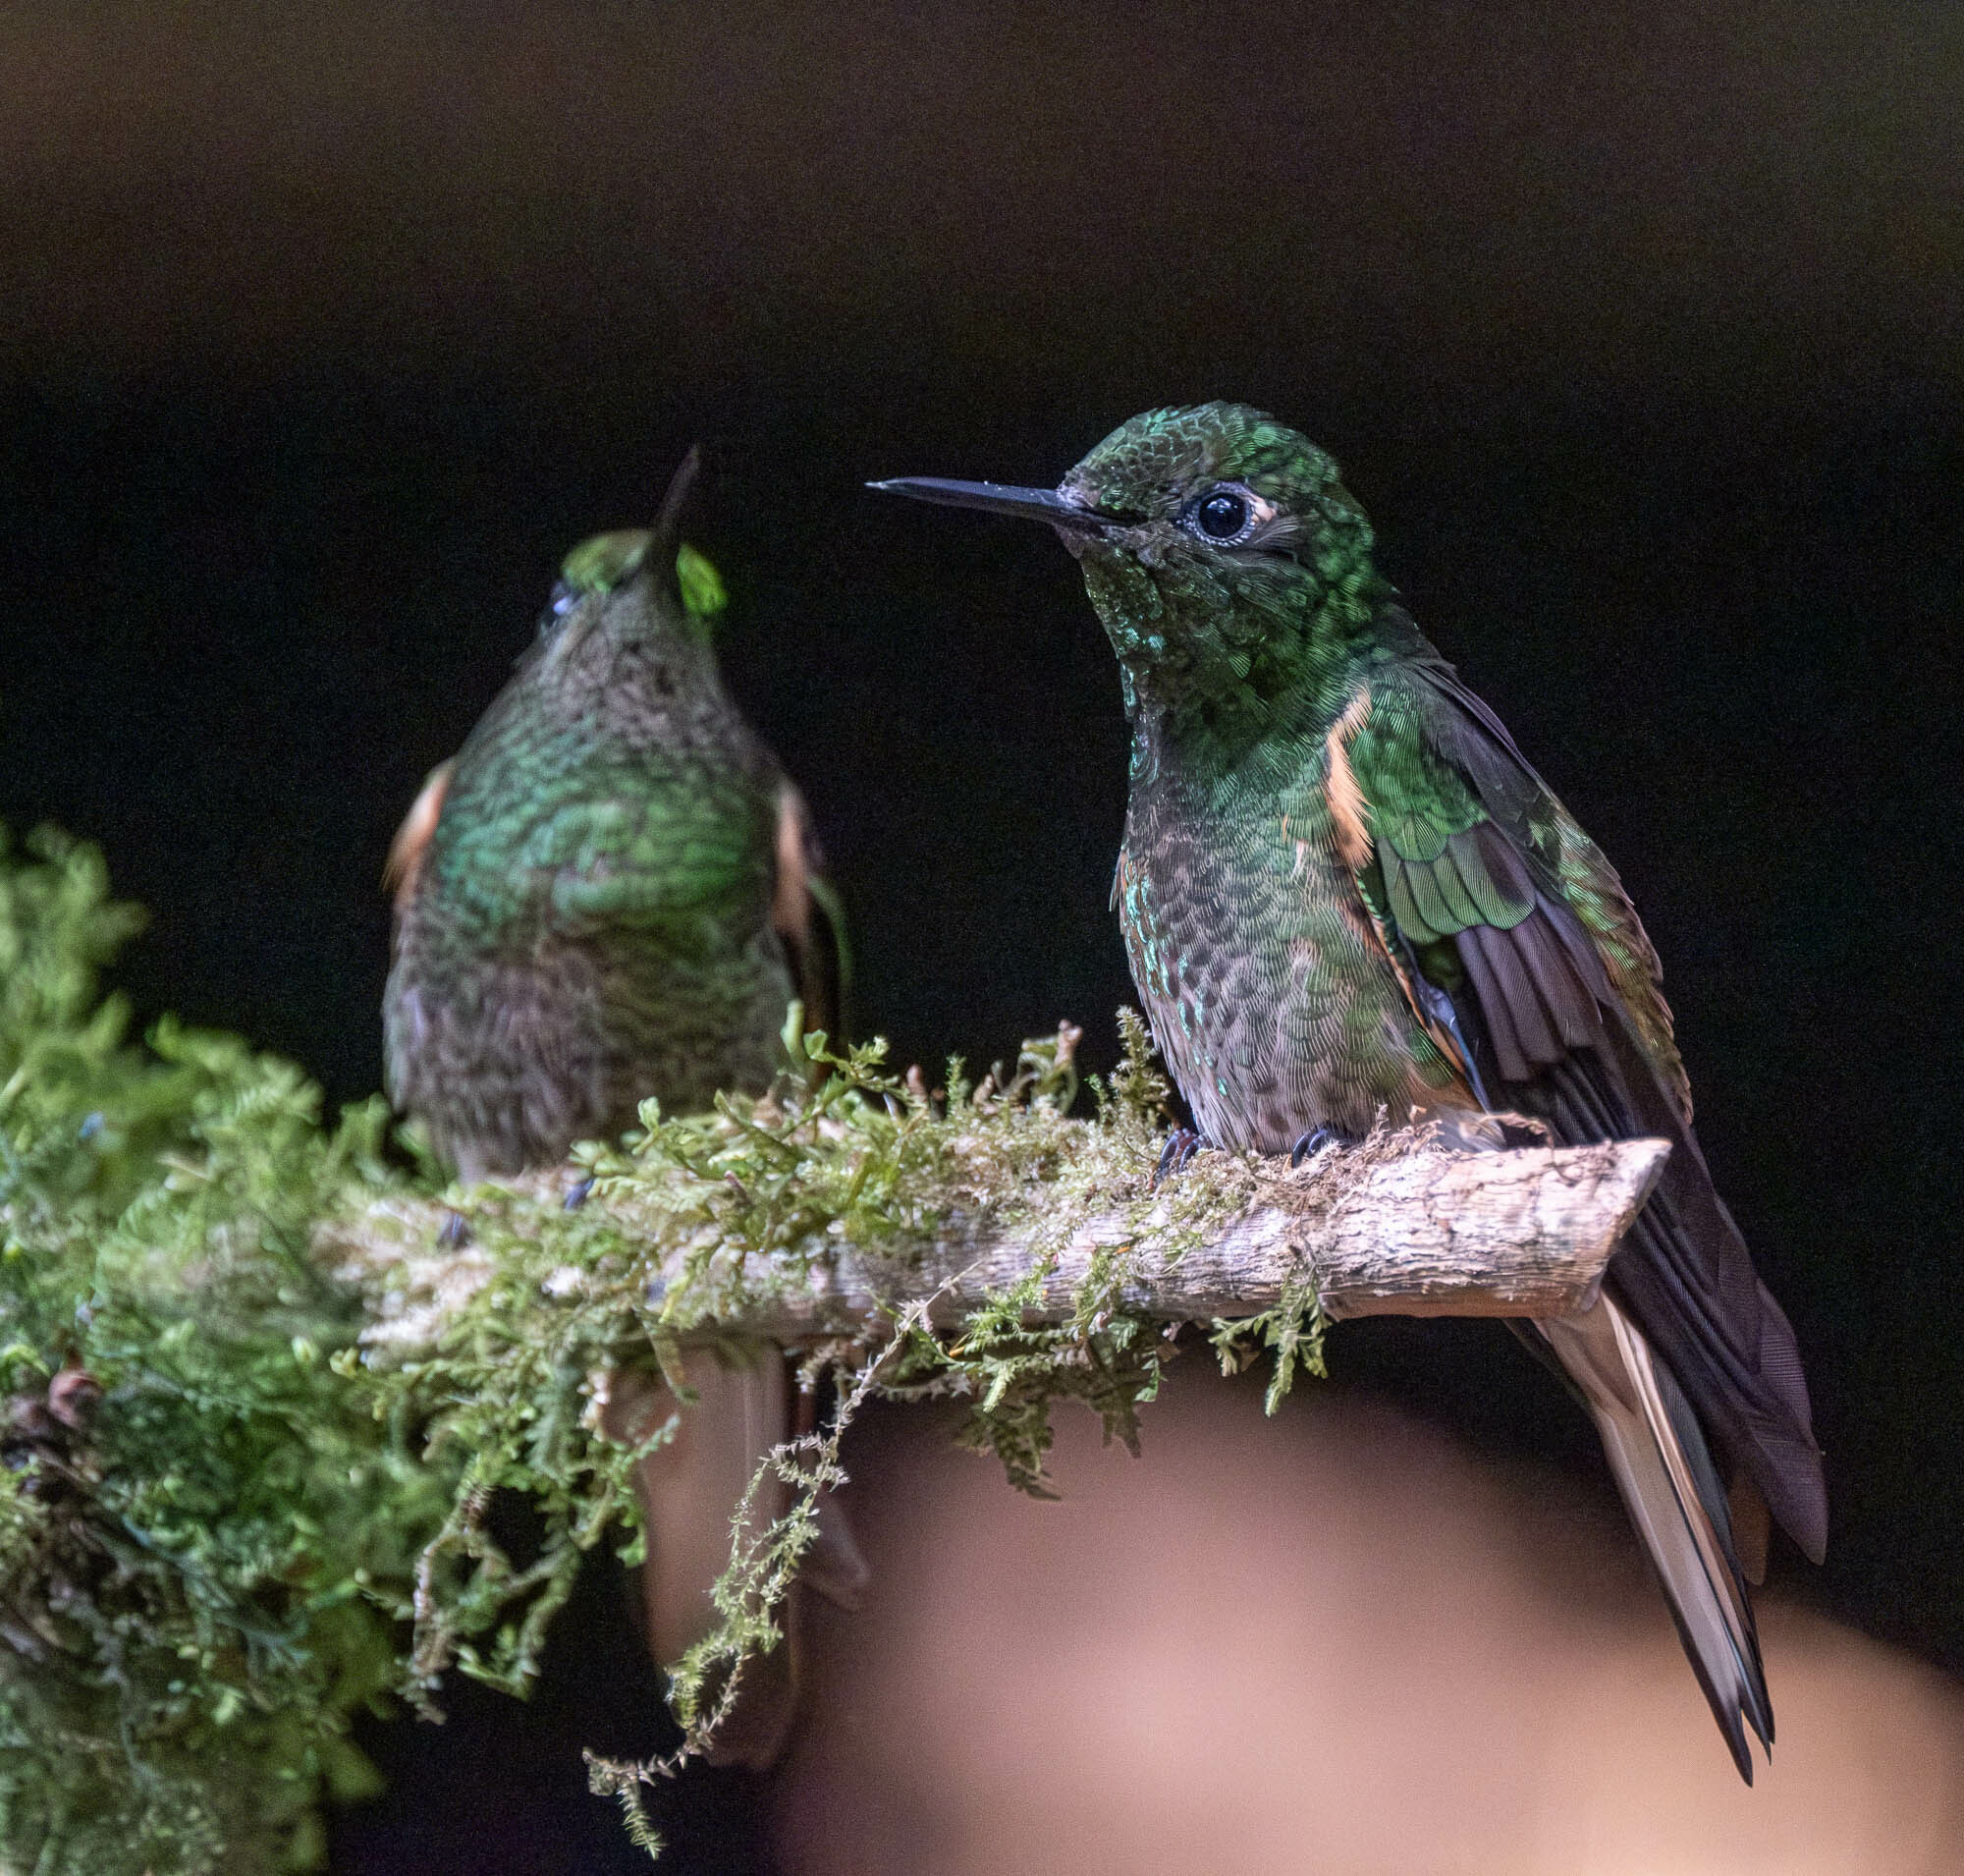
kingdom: Animalia
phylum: Chordata
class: Aves
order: Apodiformes
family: Trochilidae
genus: Boissonneaua
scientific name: Boissonneaua flavescens
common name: Buff-tailed coronet
